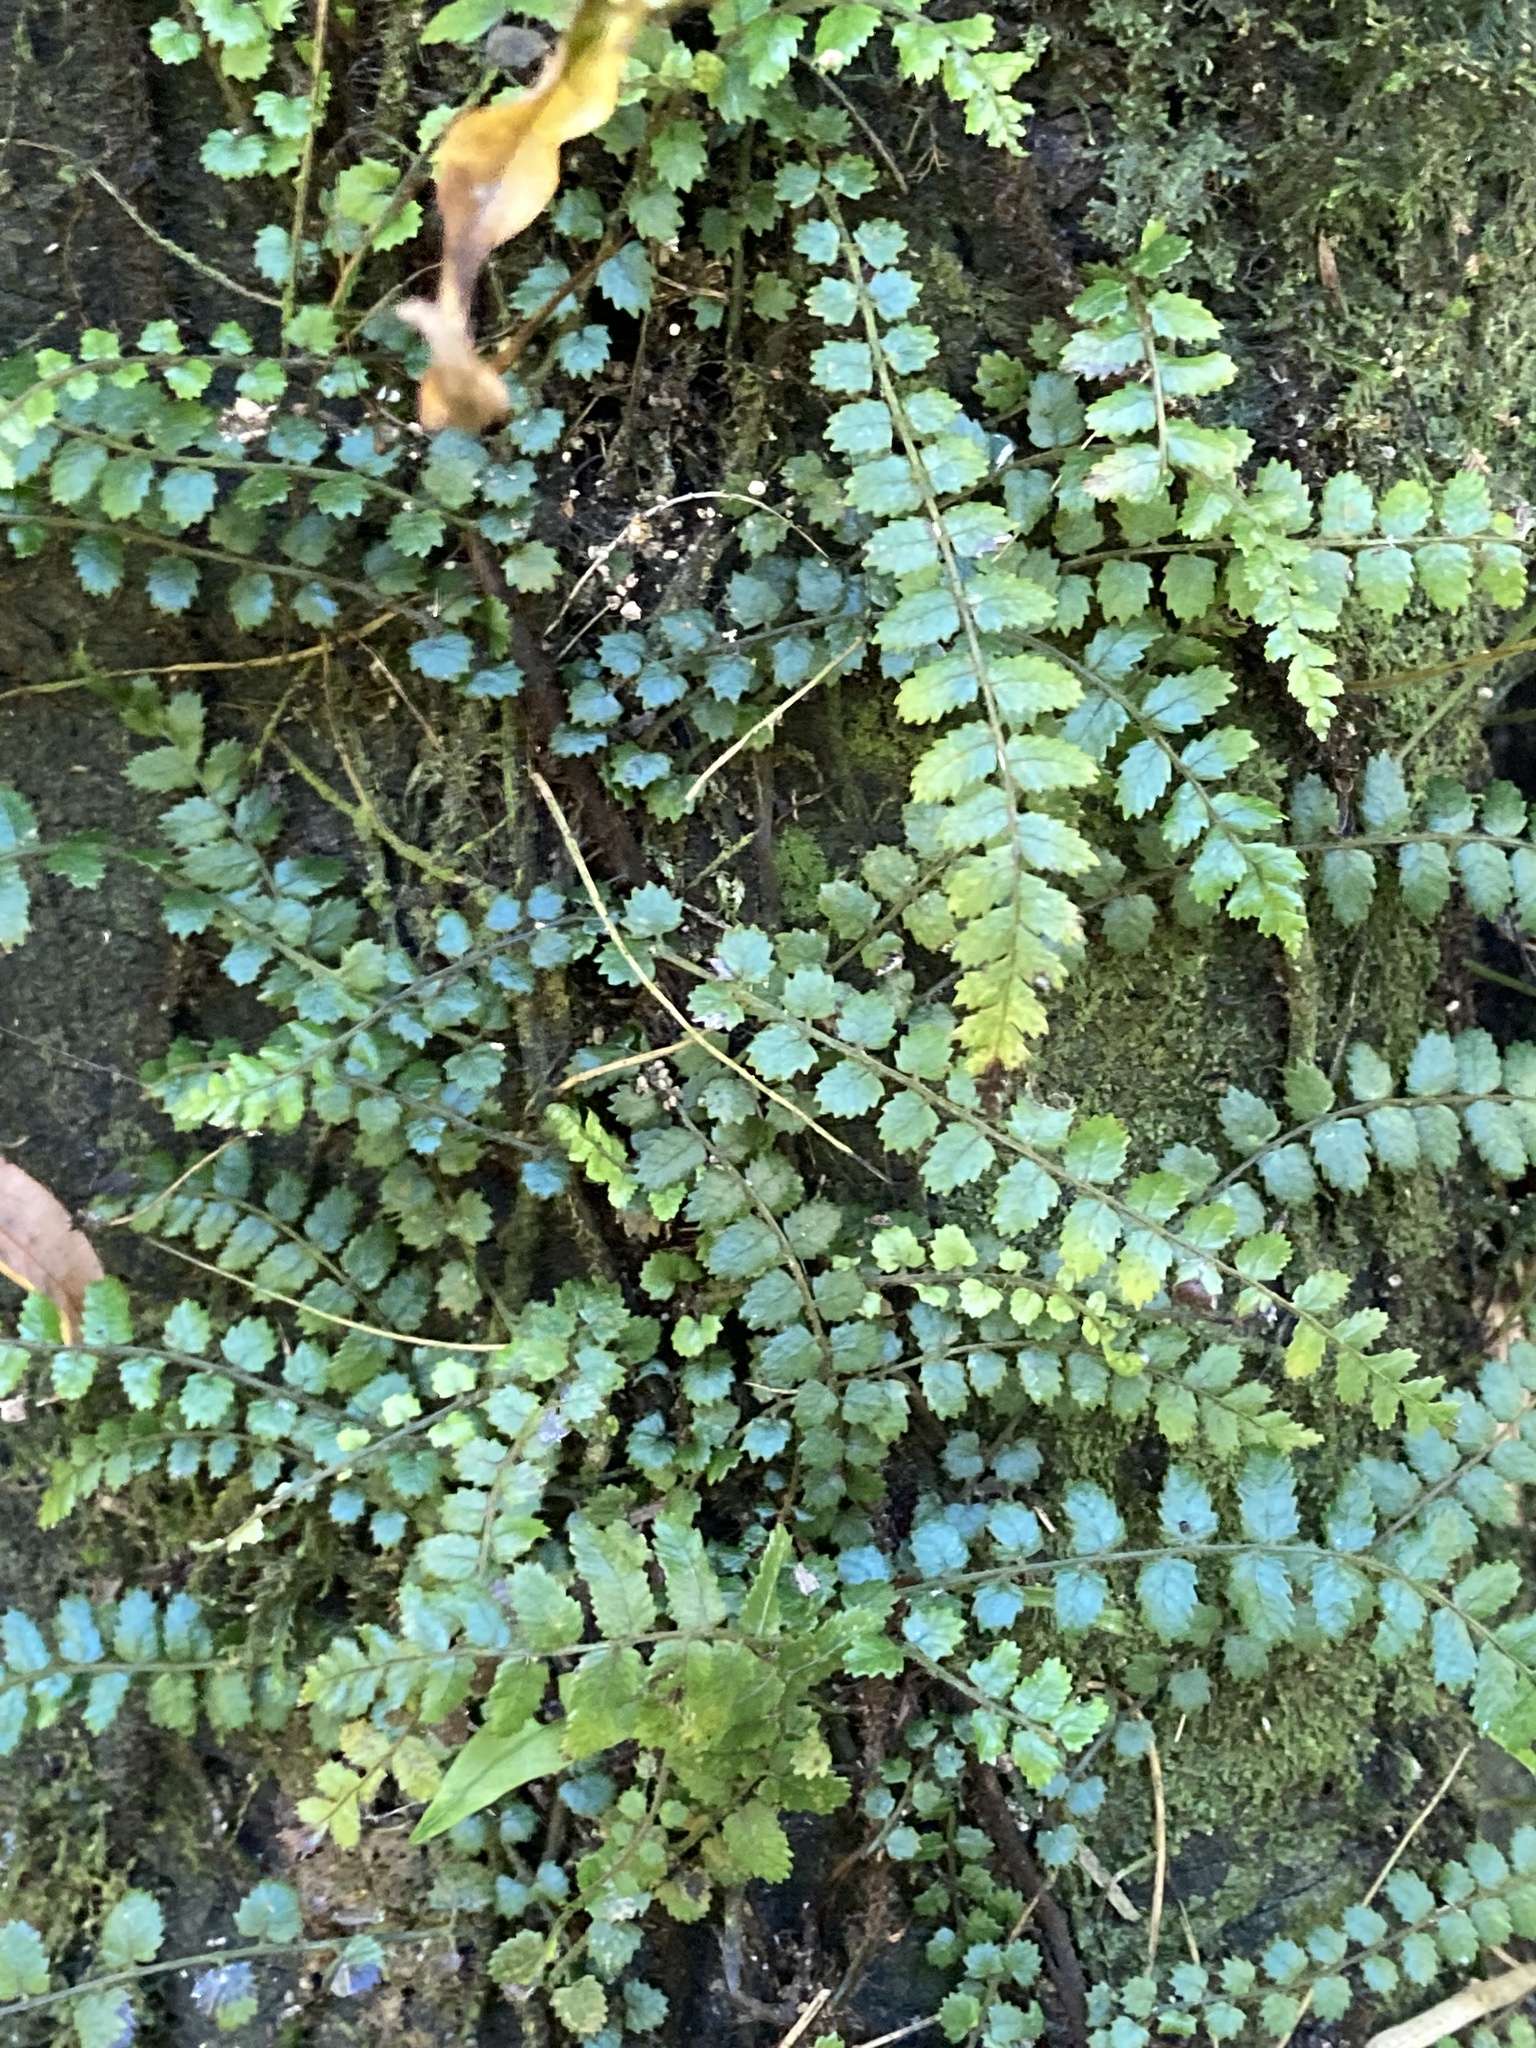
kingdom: Plantae
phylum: Tracheophyta
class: Polypodiopsida
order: Polypodiales
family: Blechnaceae
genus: Icarus
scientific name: Icarus filiformis
